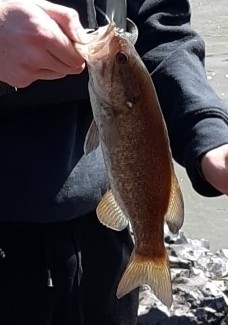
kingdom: Animalia
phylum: Chordata
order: Perciformes
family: Centrarchidae
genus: Micropterus
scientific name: Micropterus dolomieu
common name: Smallmouth bass
